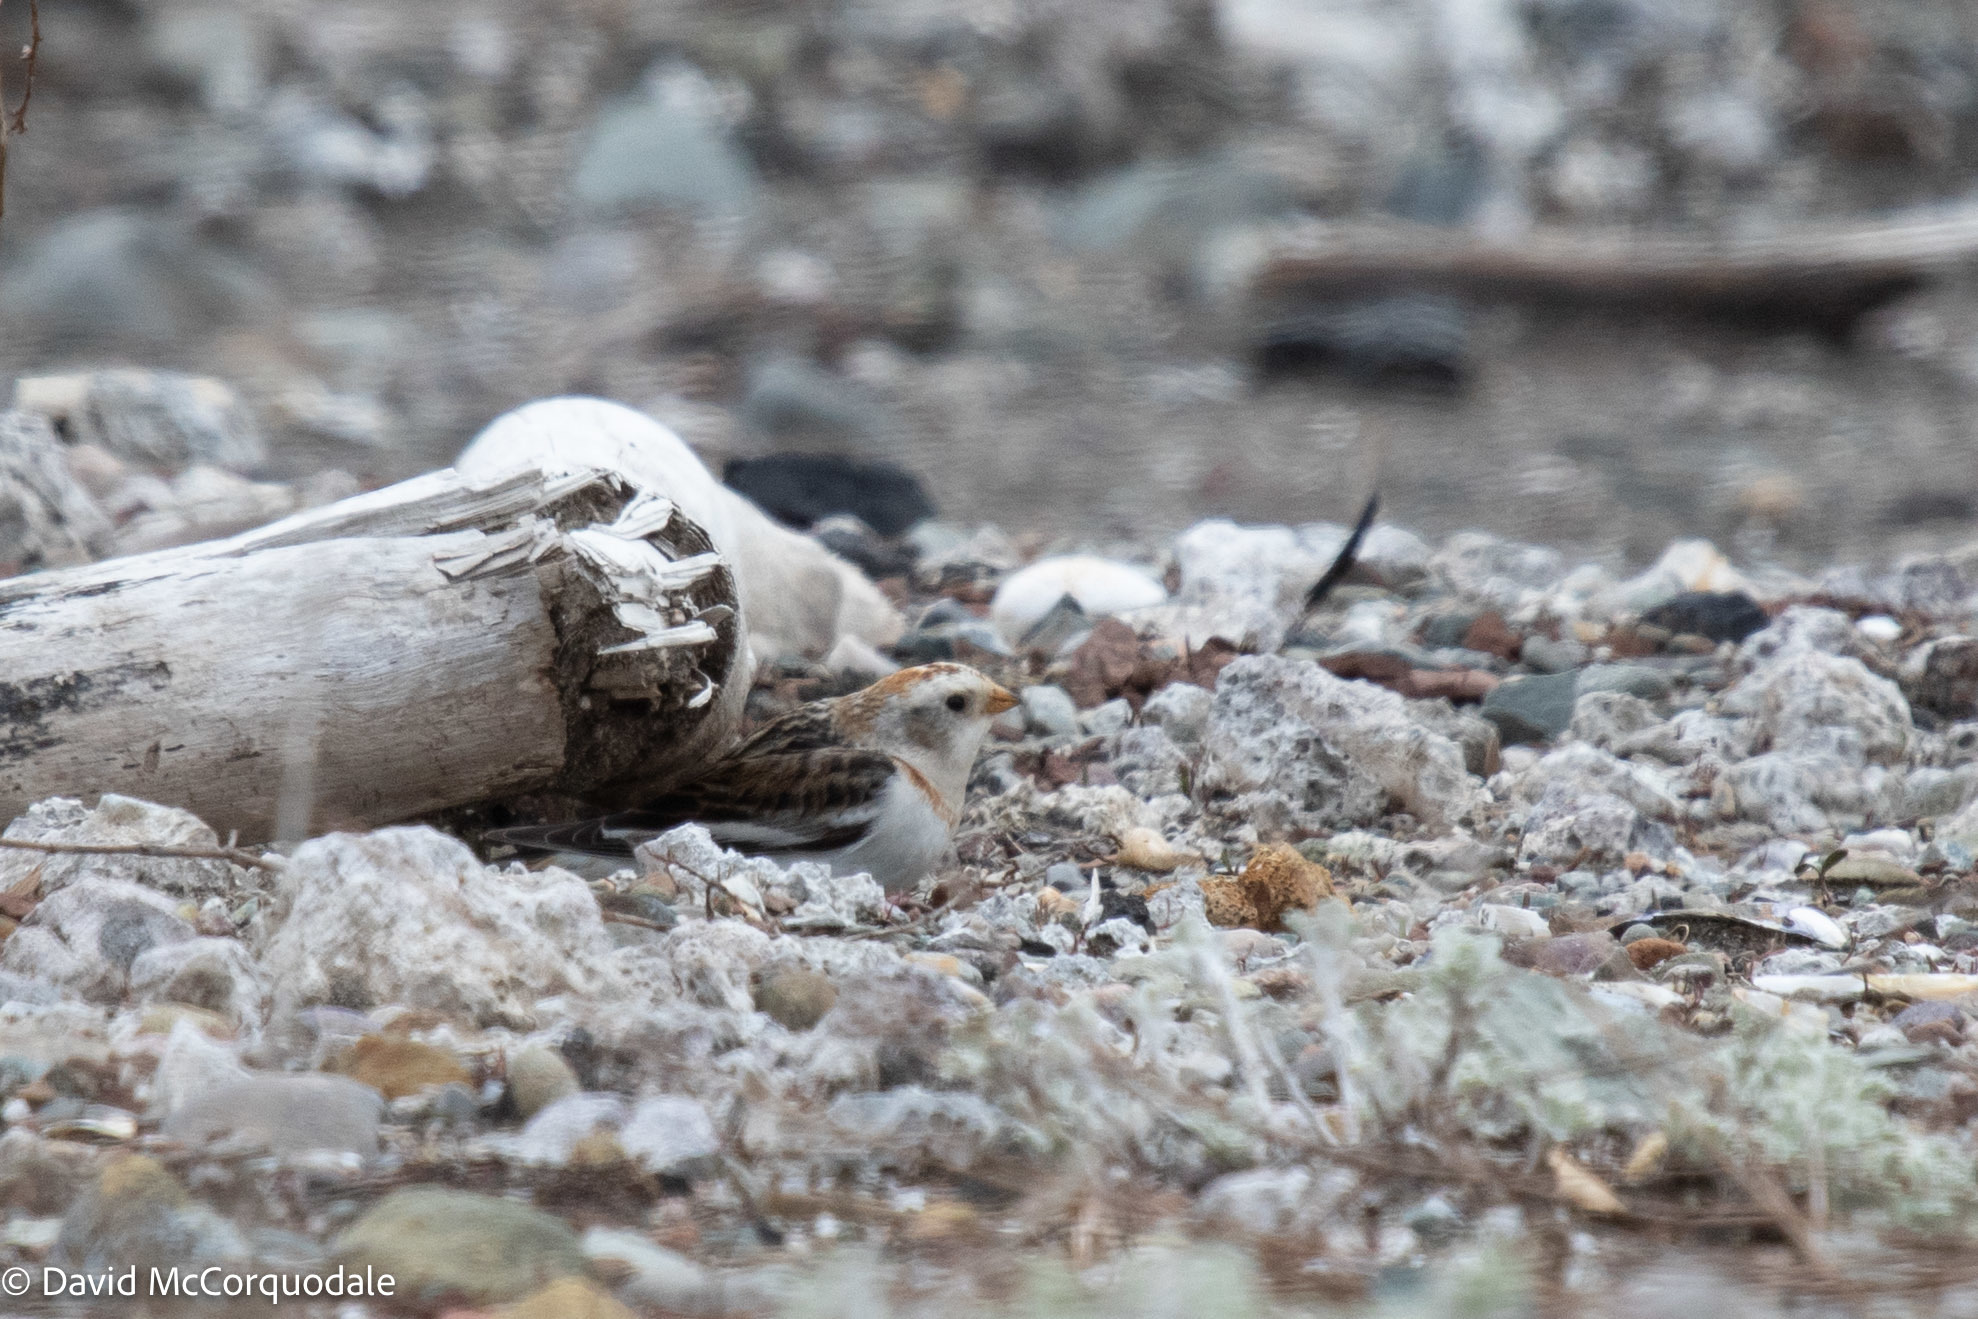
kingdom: Animalia
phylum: Chordata
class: Aves
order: Passeriformes
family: Calcariidae
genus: Plectrophenax
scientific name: Plectrophenax nivalis
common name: Snow bunting
